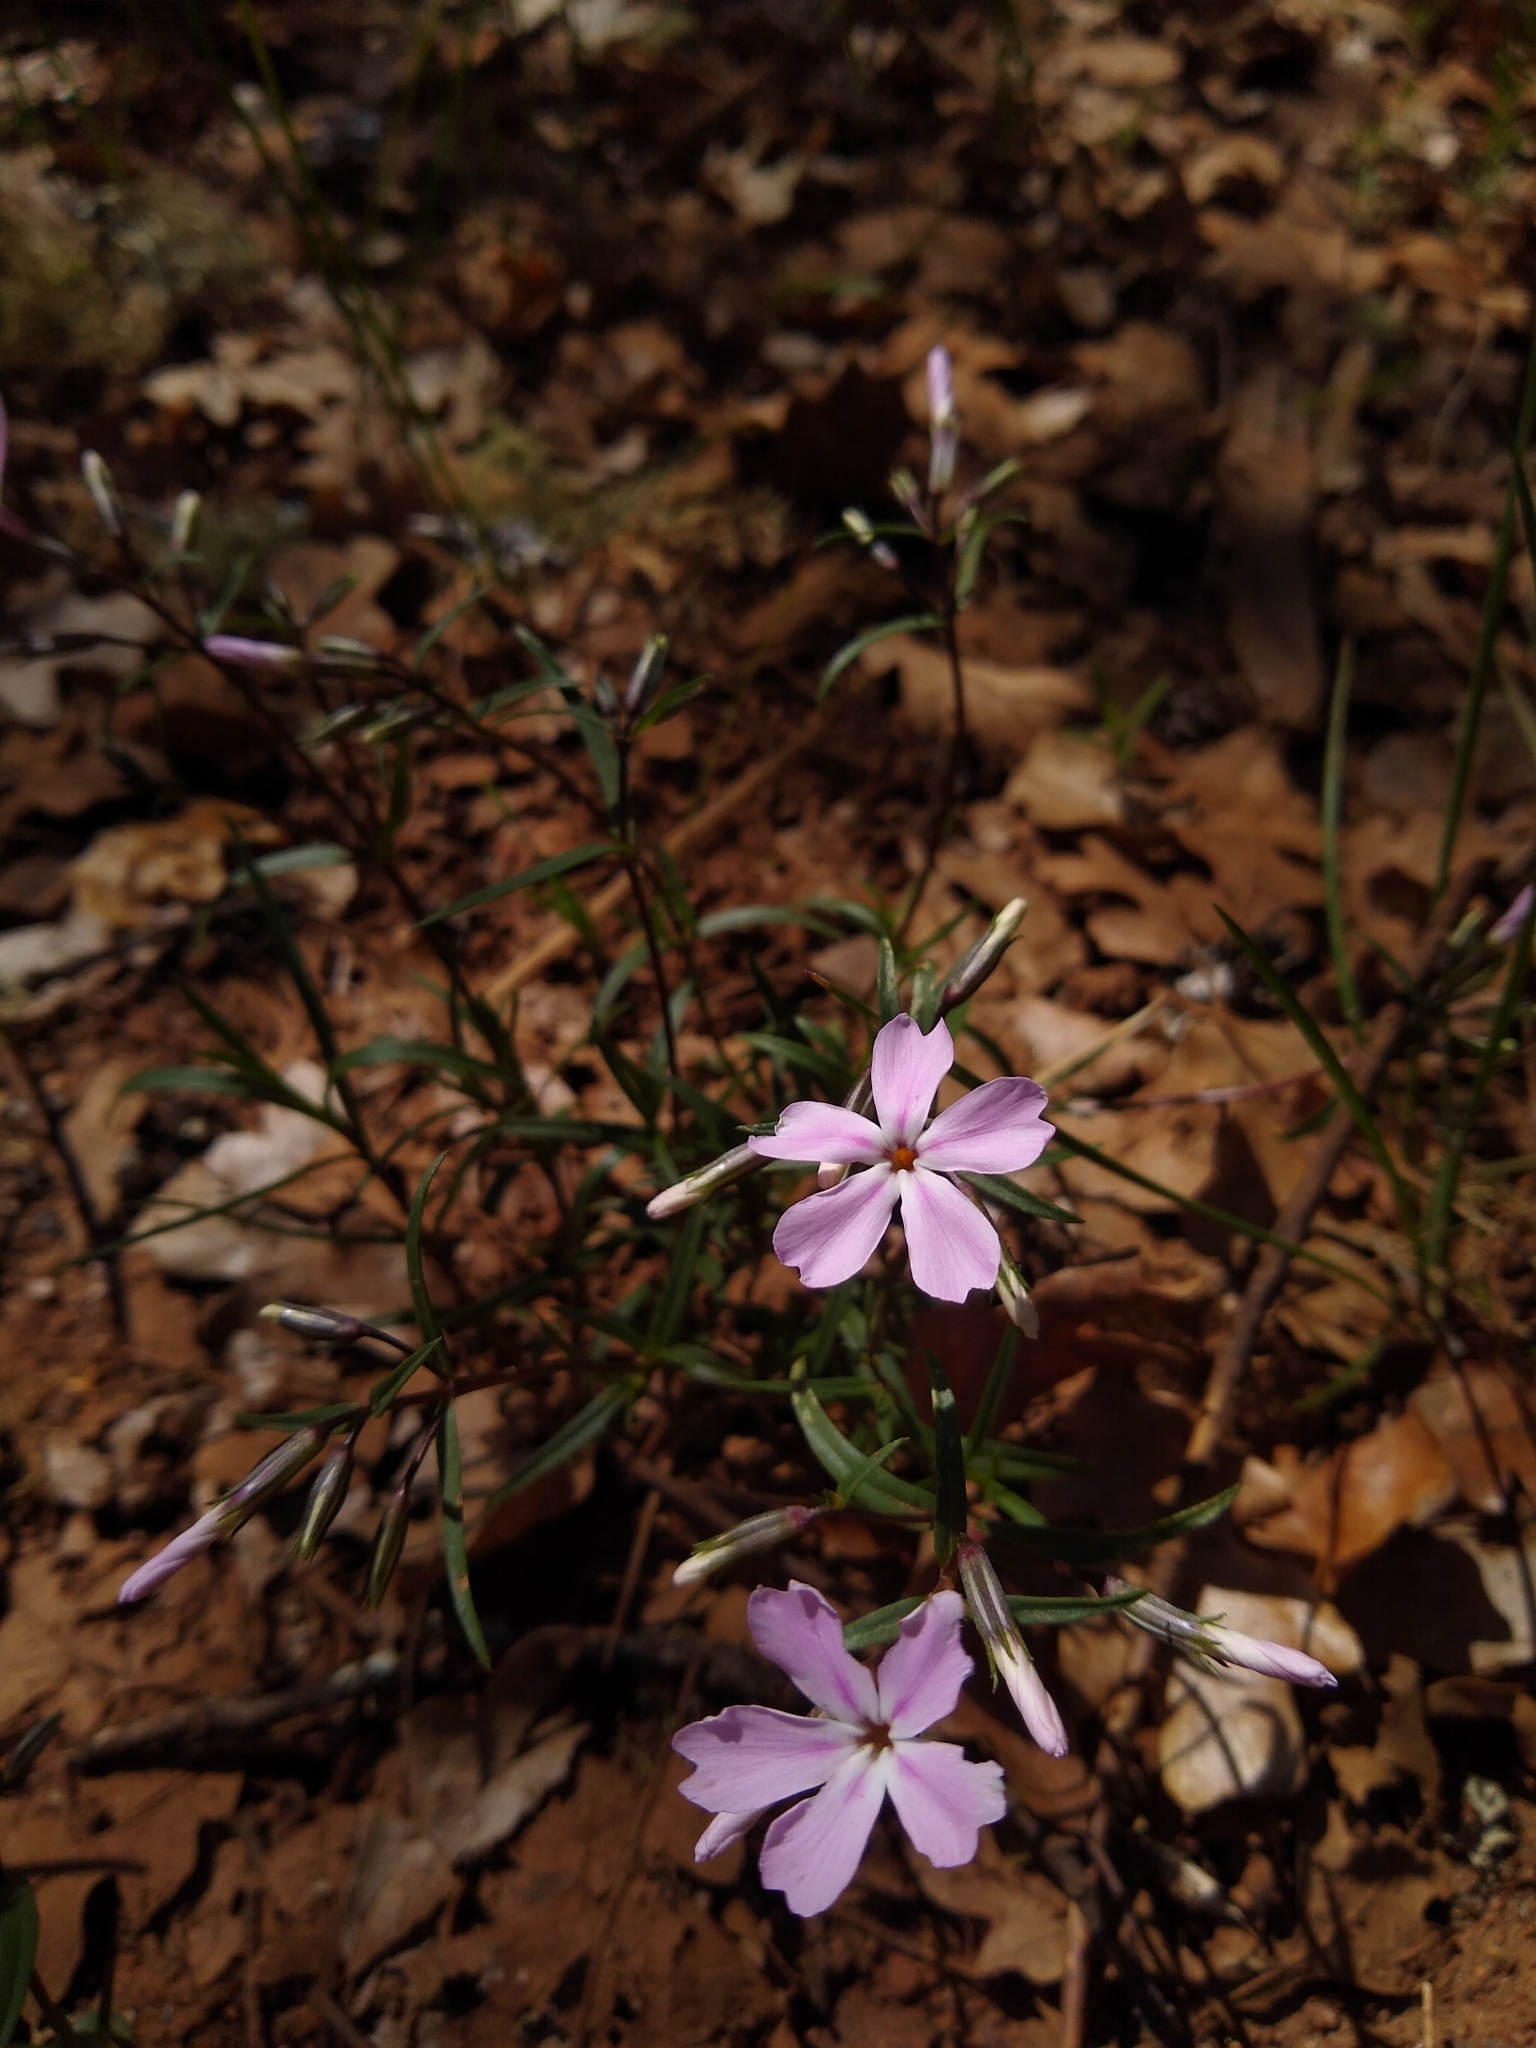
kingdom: Plantae
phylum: Tracheophyta
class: Magnoliopsida
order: Ericales
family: Polemoniaceae
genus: Phlox
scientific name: Phlox speciosa
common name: Bush phlox
